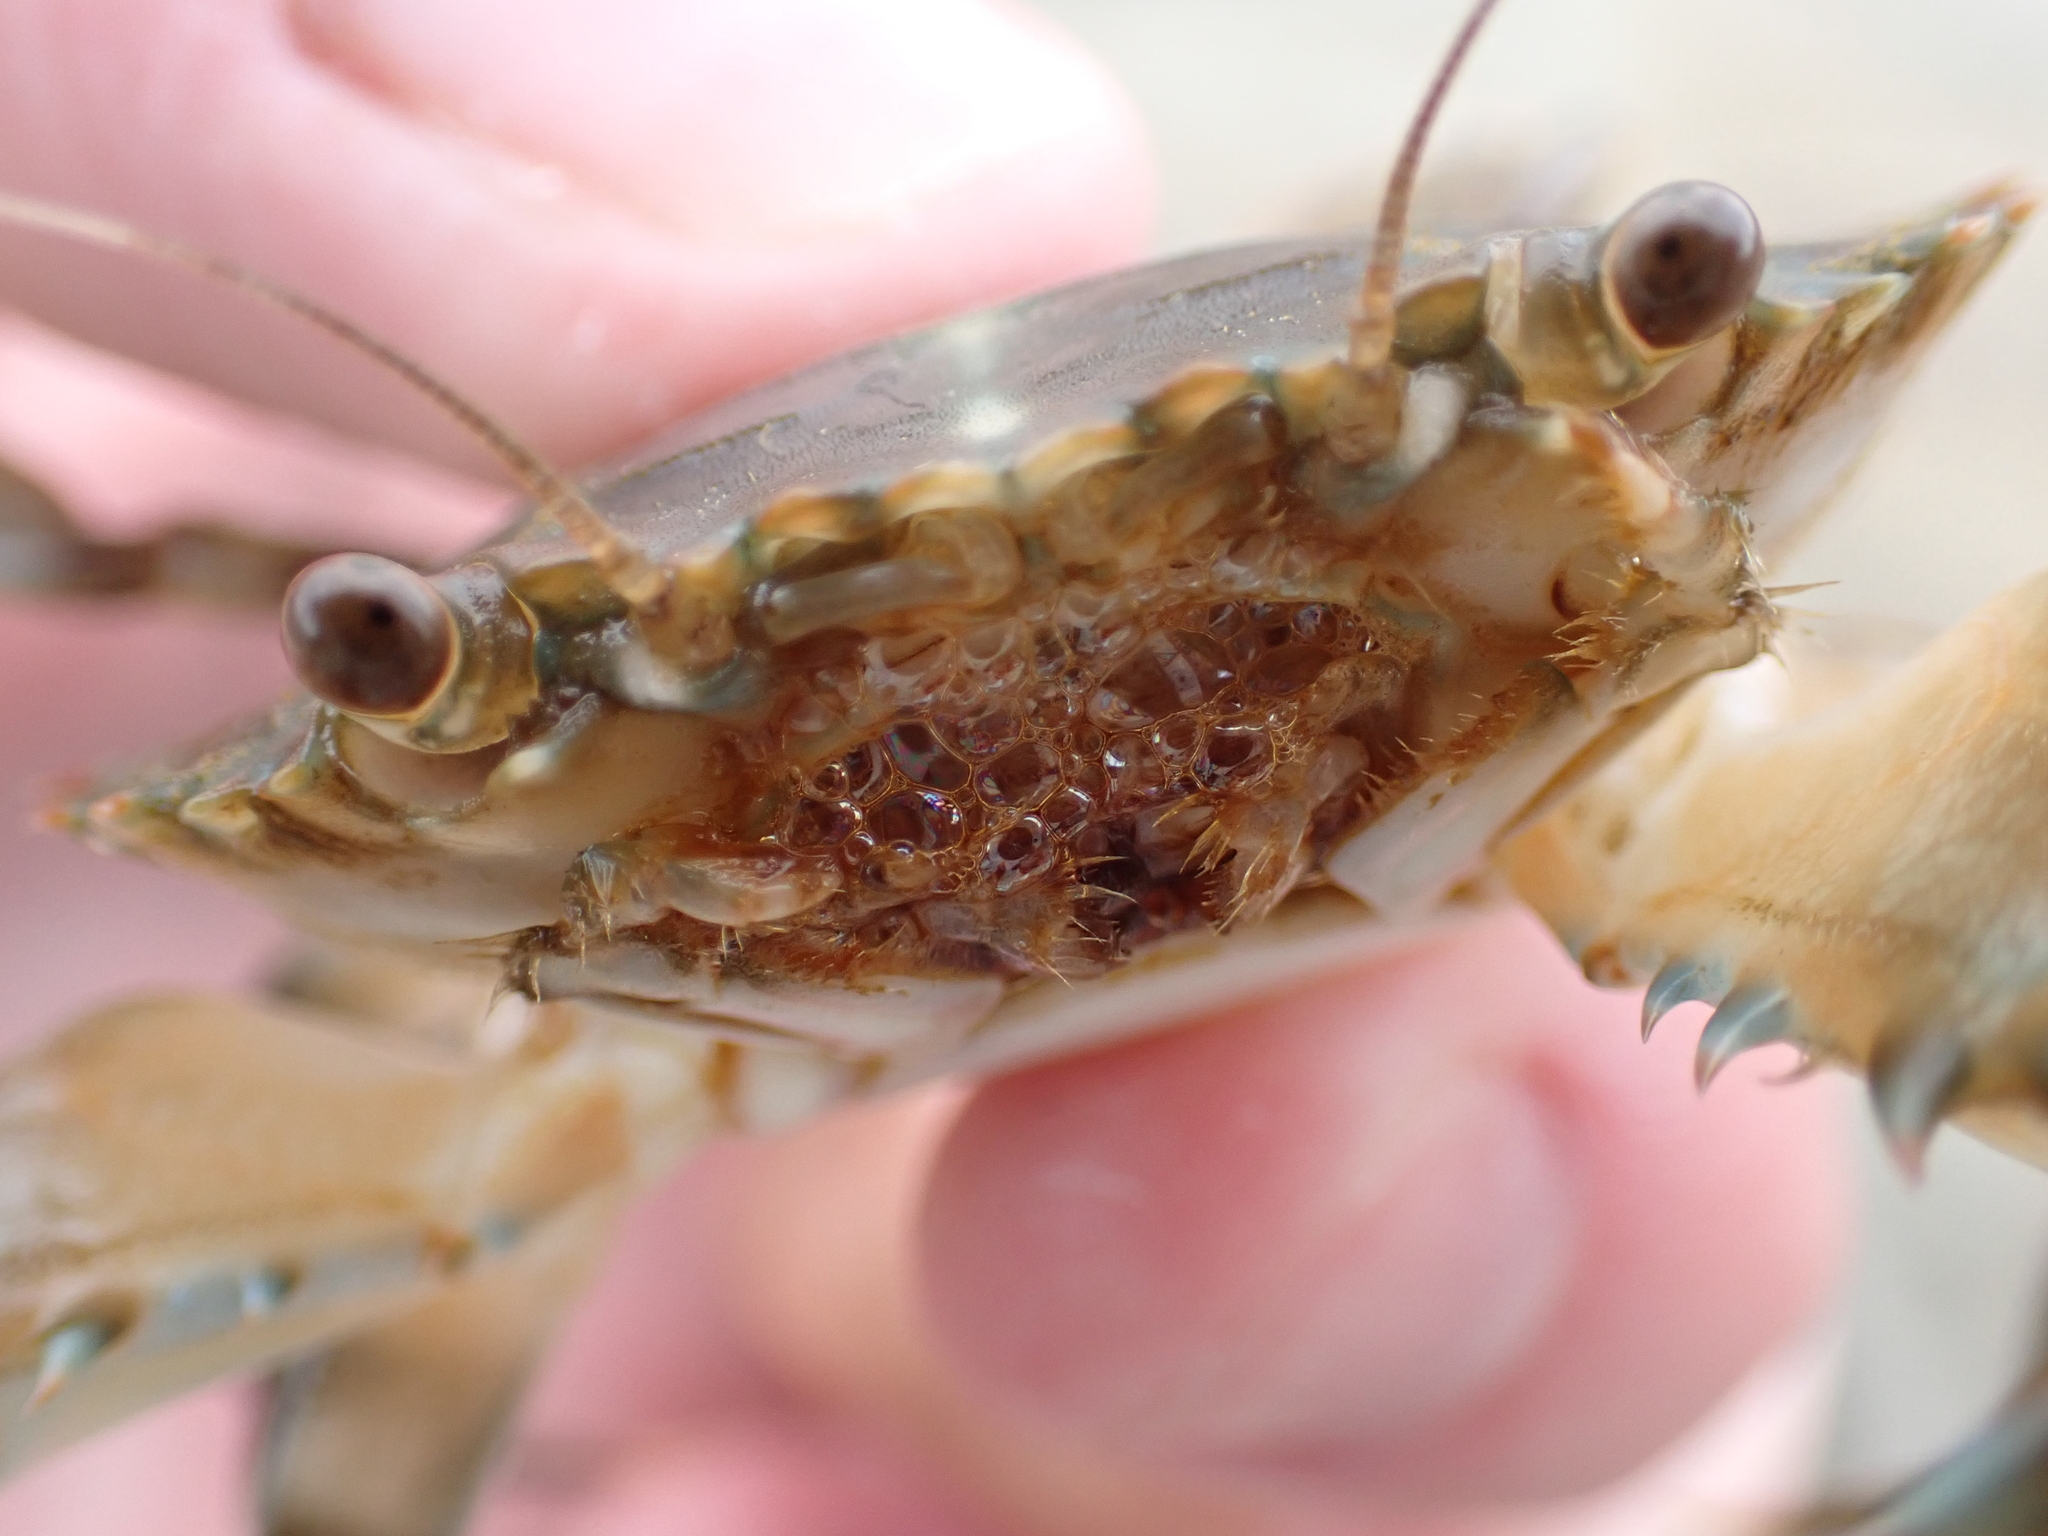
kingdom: Animalia
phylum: Arthropoda
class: Malacostraca
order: Decapoda
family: Portunidae
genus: Charybdis
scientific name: Charybdis annulata
